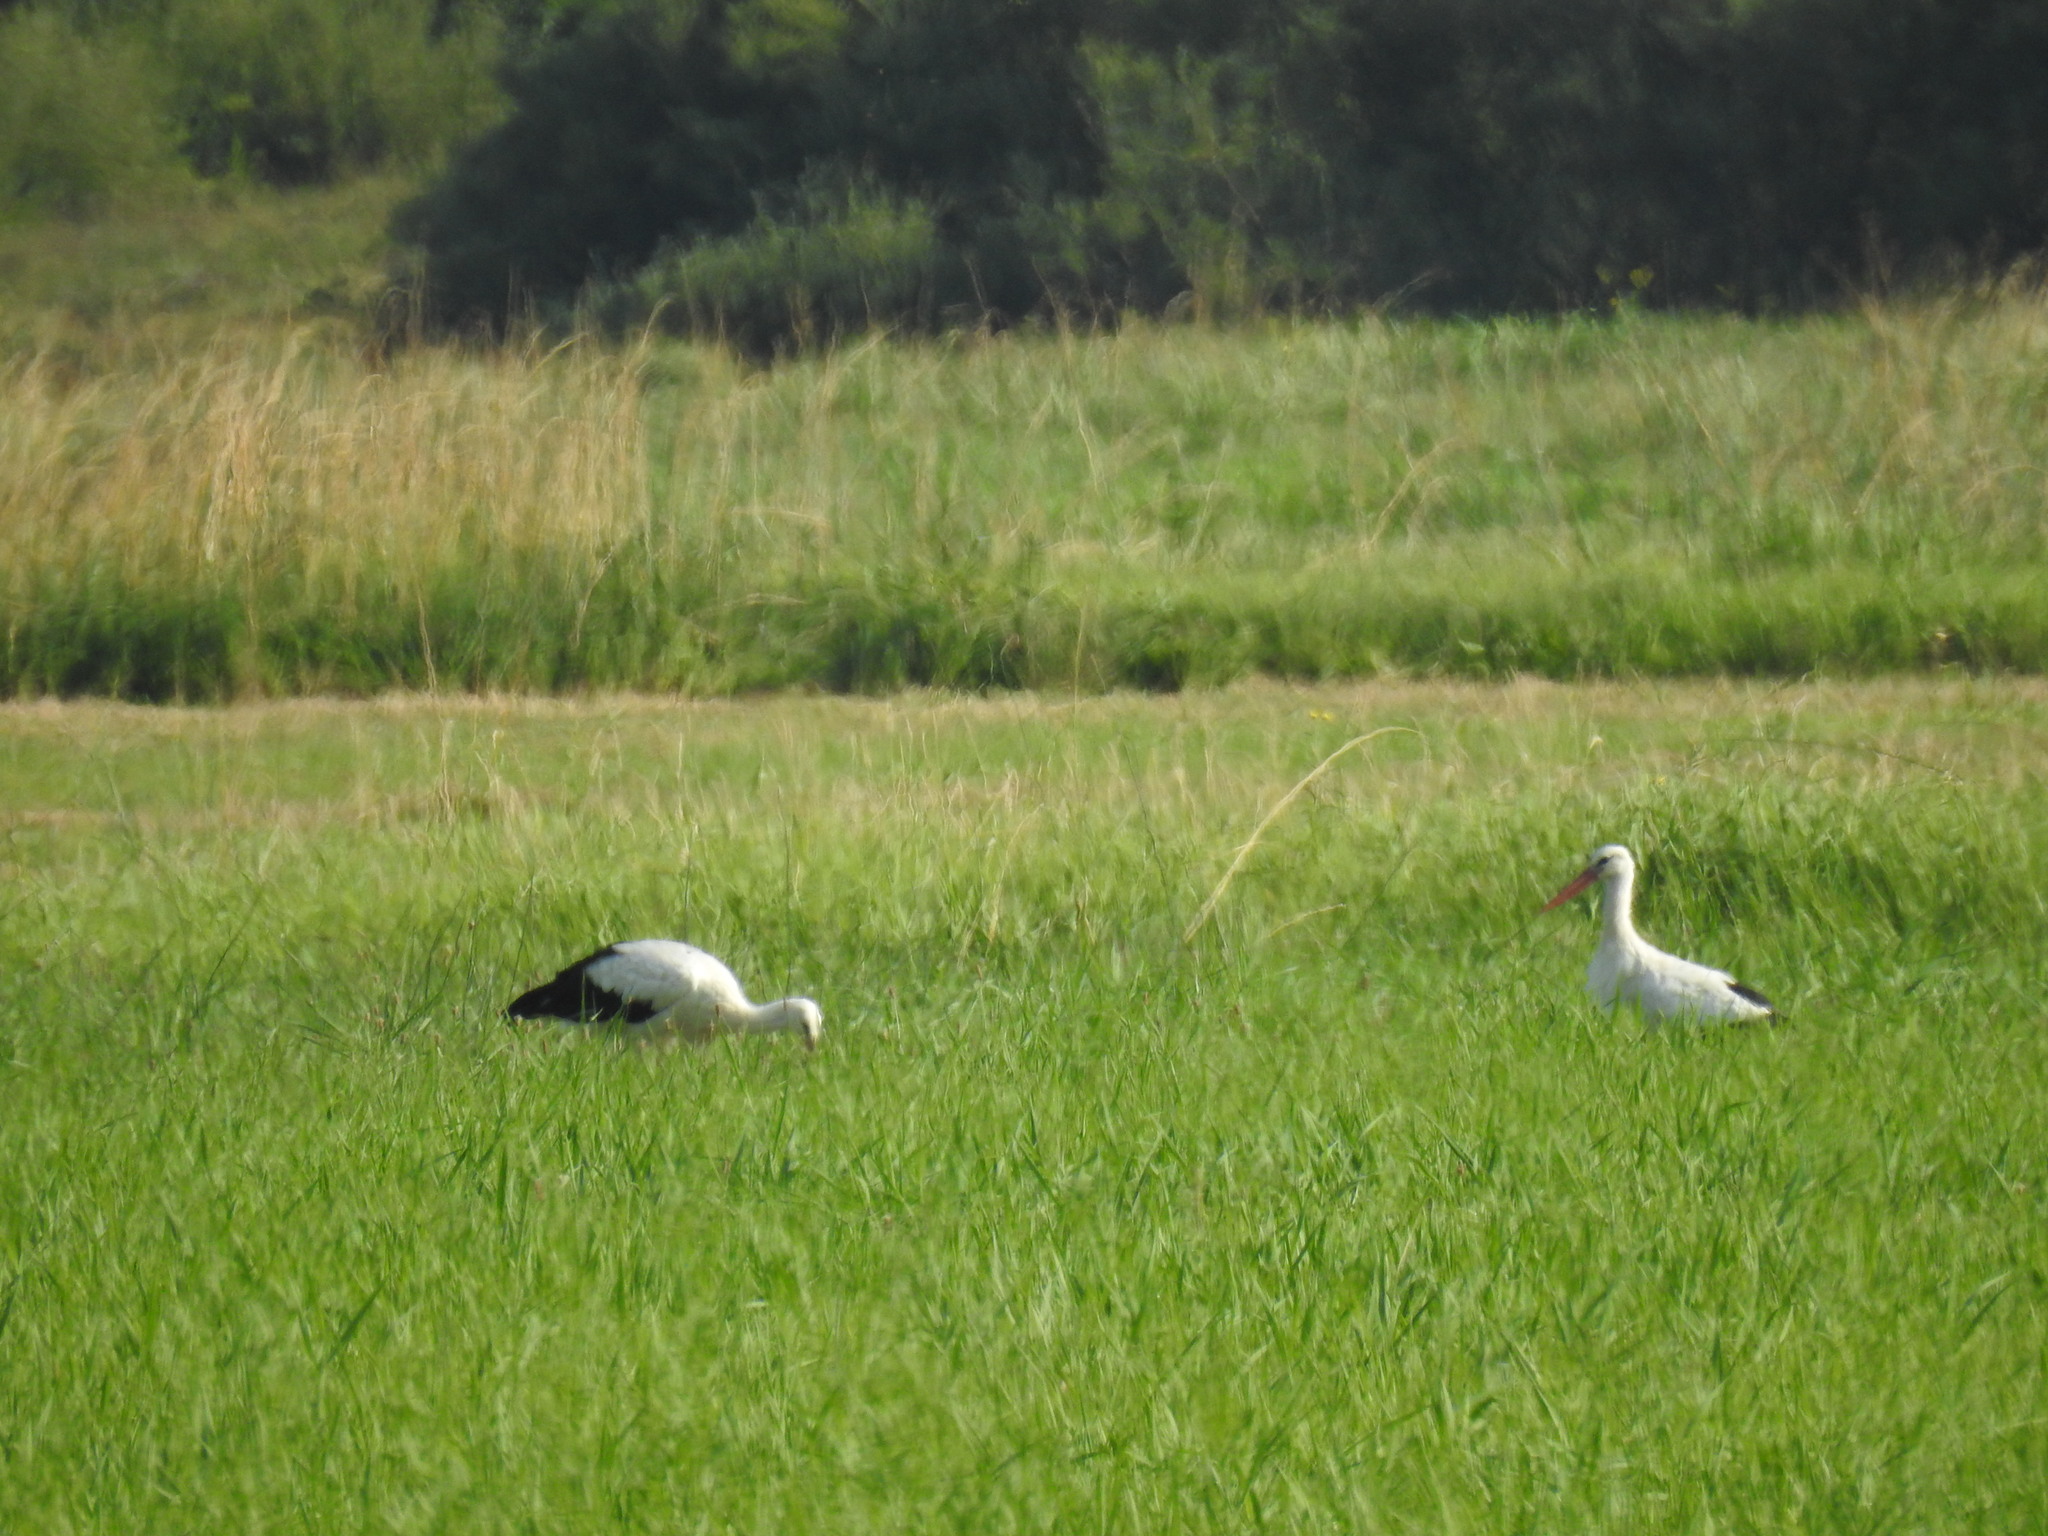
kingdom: Animalia
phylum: Chordata
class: Aves
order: Ciconiiformes
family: Ciconiidae
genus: Ciconia
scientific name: Ciconia ciconia
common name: White stork
